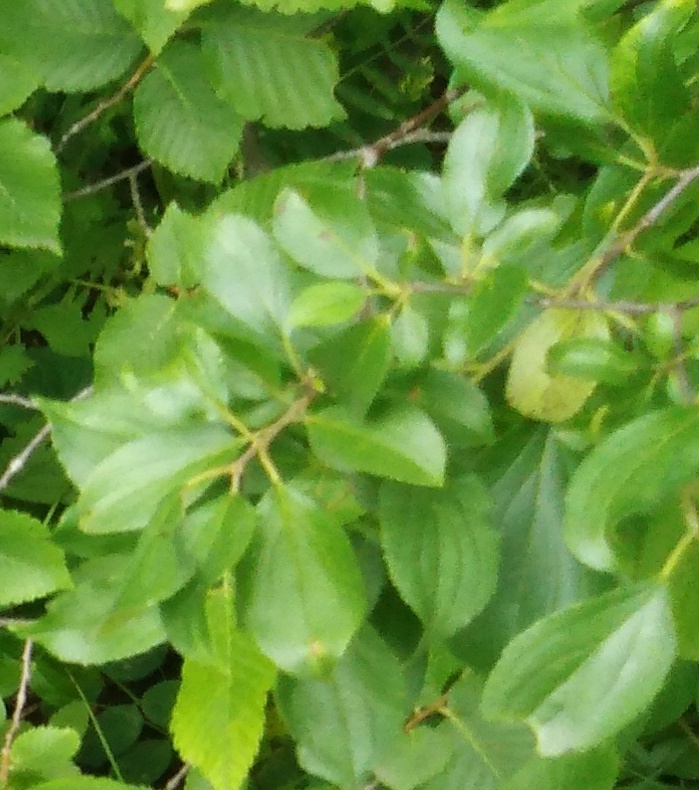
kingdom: Plantae
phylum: Tracheophyta
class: Magnoliopsida
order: Rosales
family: Rhamnaceae
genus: Rhamnus
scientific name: Rhamnus cathartica
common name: Common buckthorn
